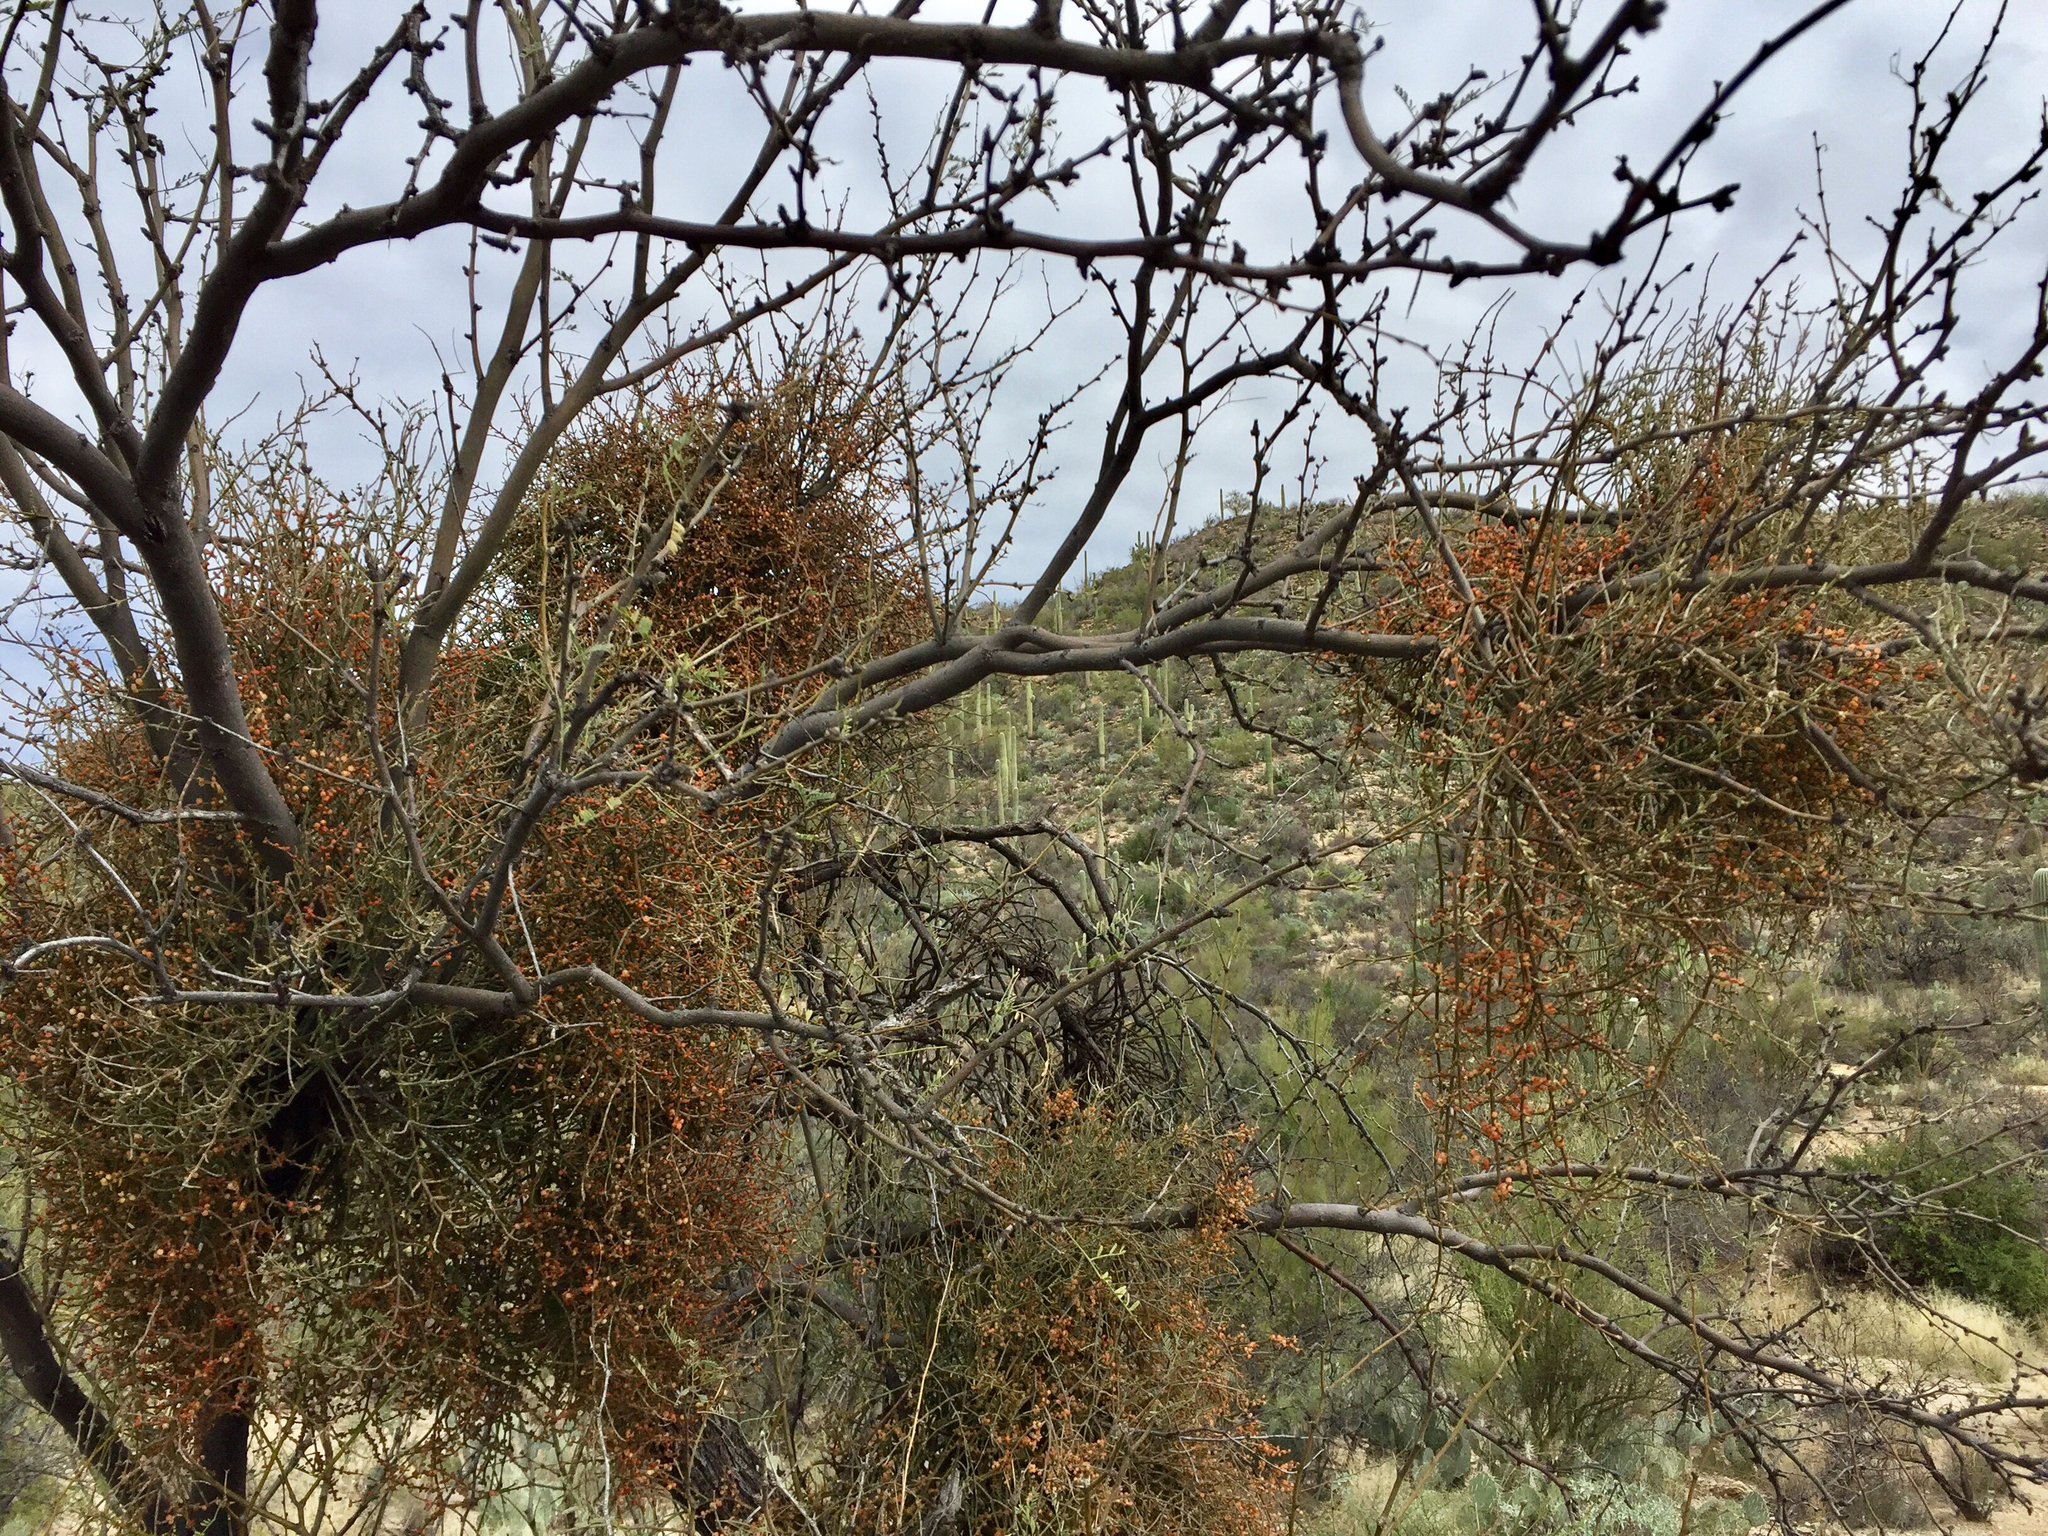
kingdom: Plantae
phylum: Tracheophyta
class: Magnoliopsida
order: Santalales
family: Viscaceae
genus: Phoradendron
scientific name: Phoradendron californicum
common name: Acacia mistletoe
